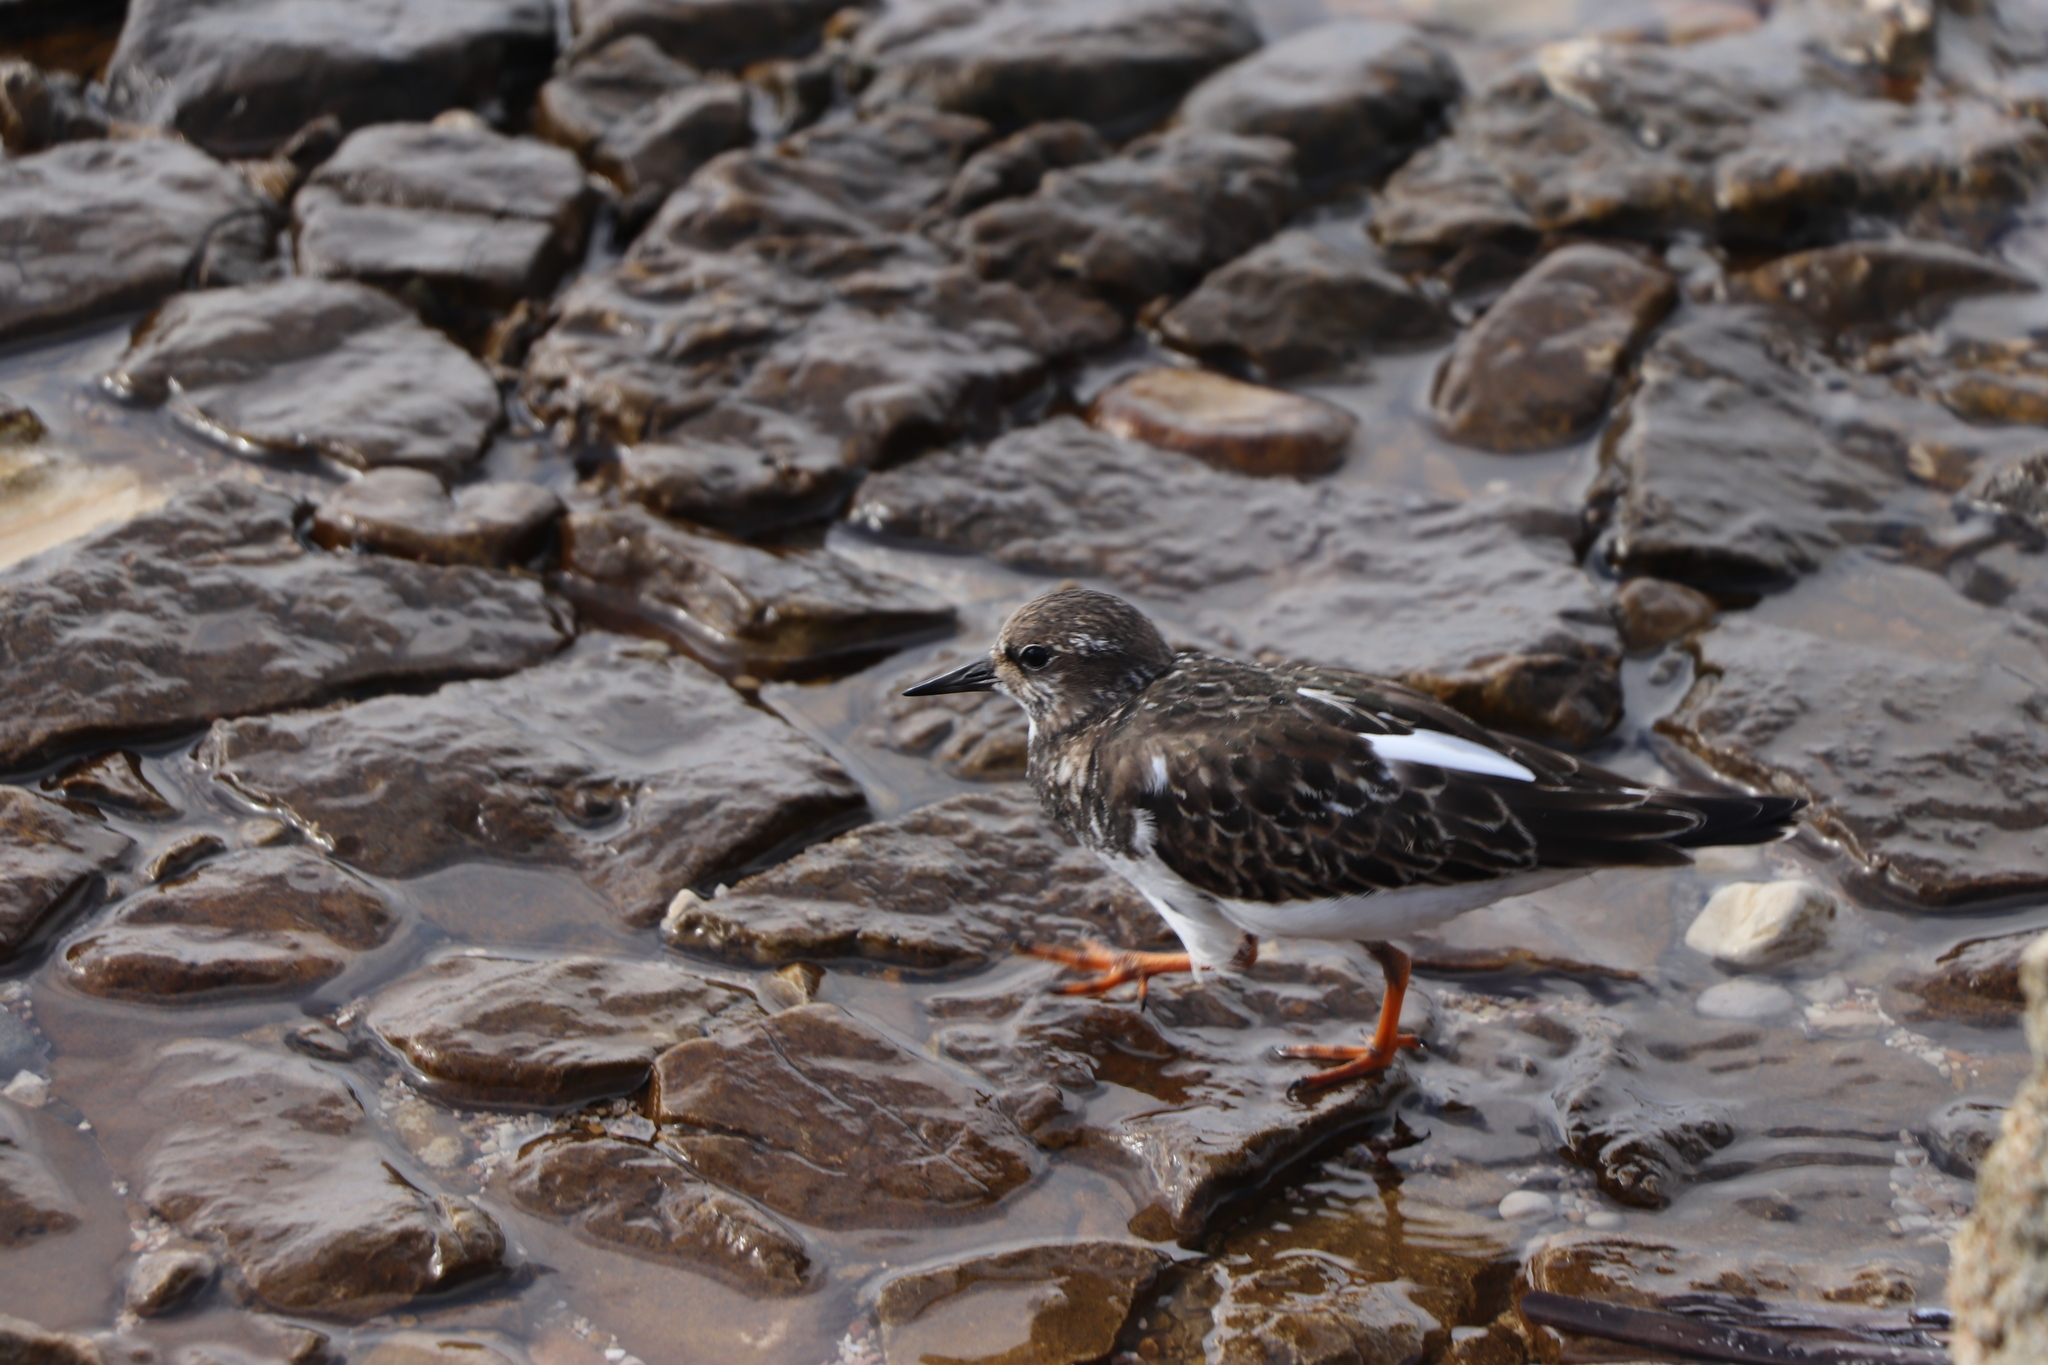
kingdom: Animalia
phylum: Chordata
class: Aves
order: Charadriiformes
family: Scolopacidae
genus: Arenaria
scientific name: Arenaria interpres
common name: Ruddy turnstone
